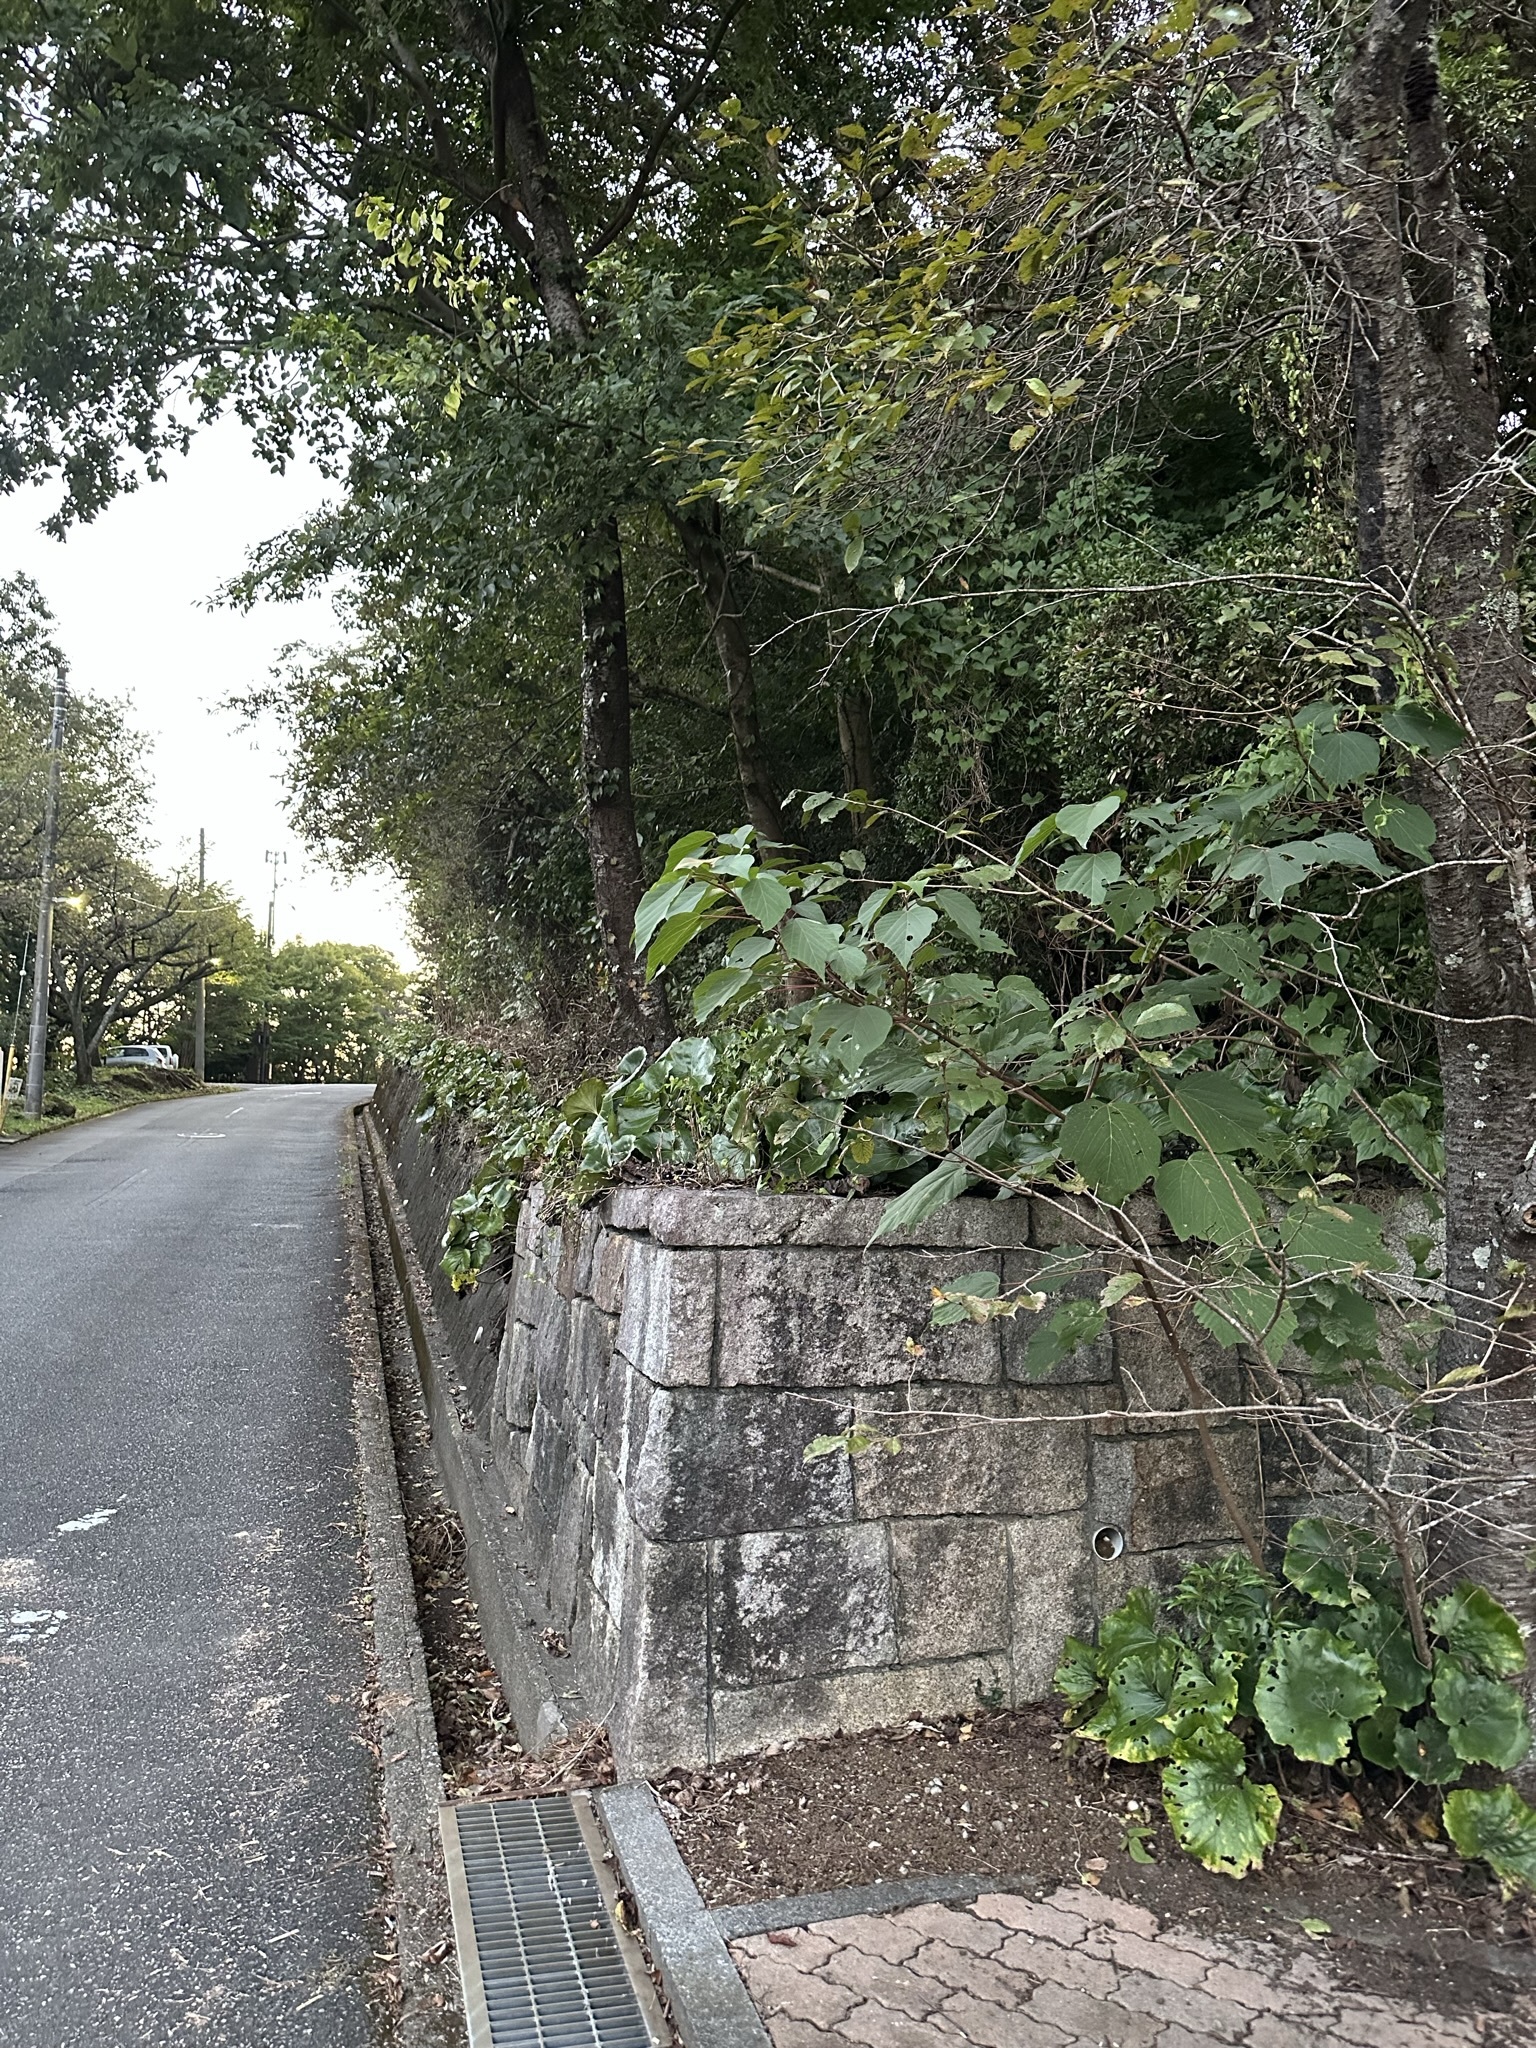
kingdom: Animalia
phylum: Arthropoda
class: Insecta
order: Orthoptera
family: Gryllidae
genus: Truljalia
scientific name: Truljalia hibinonis
